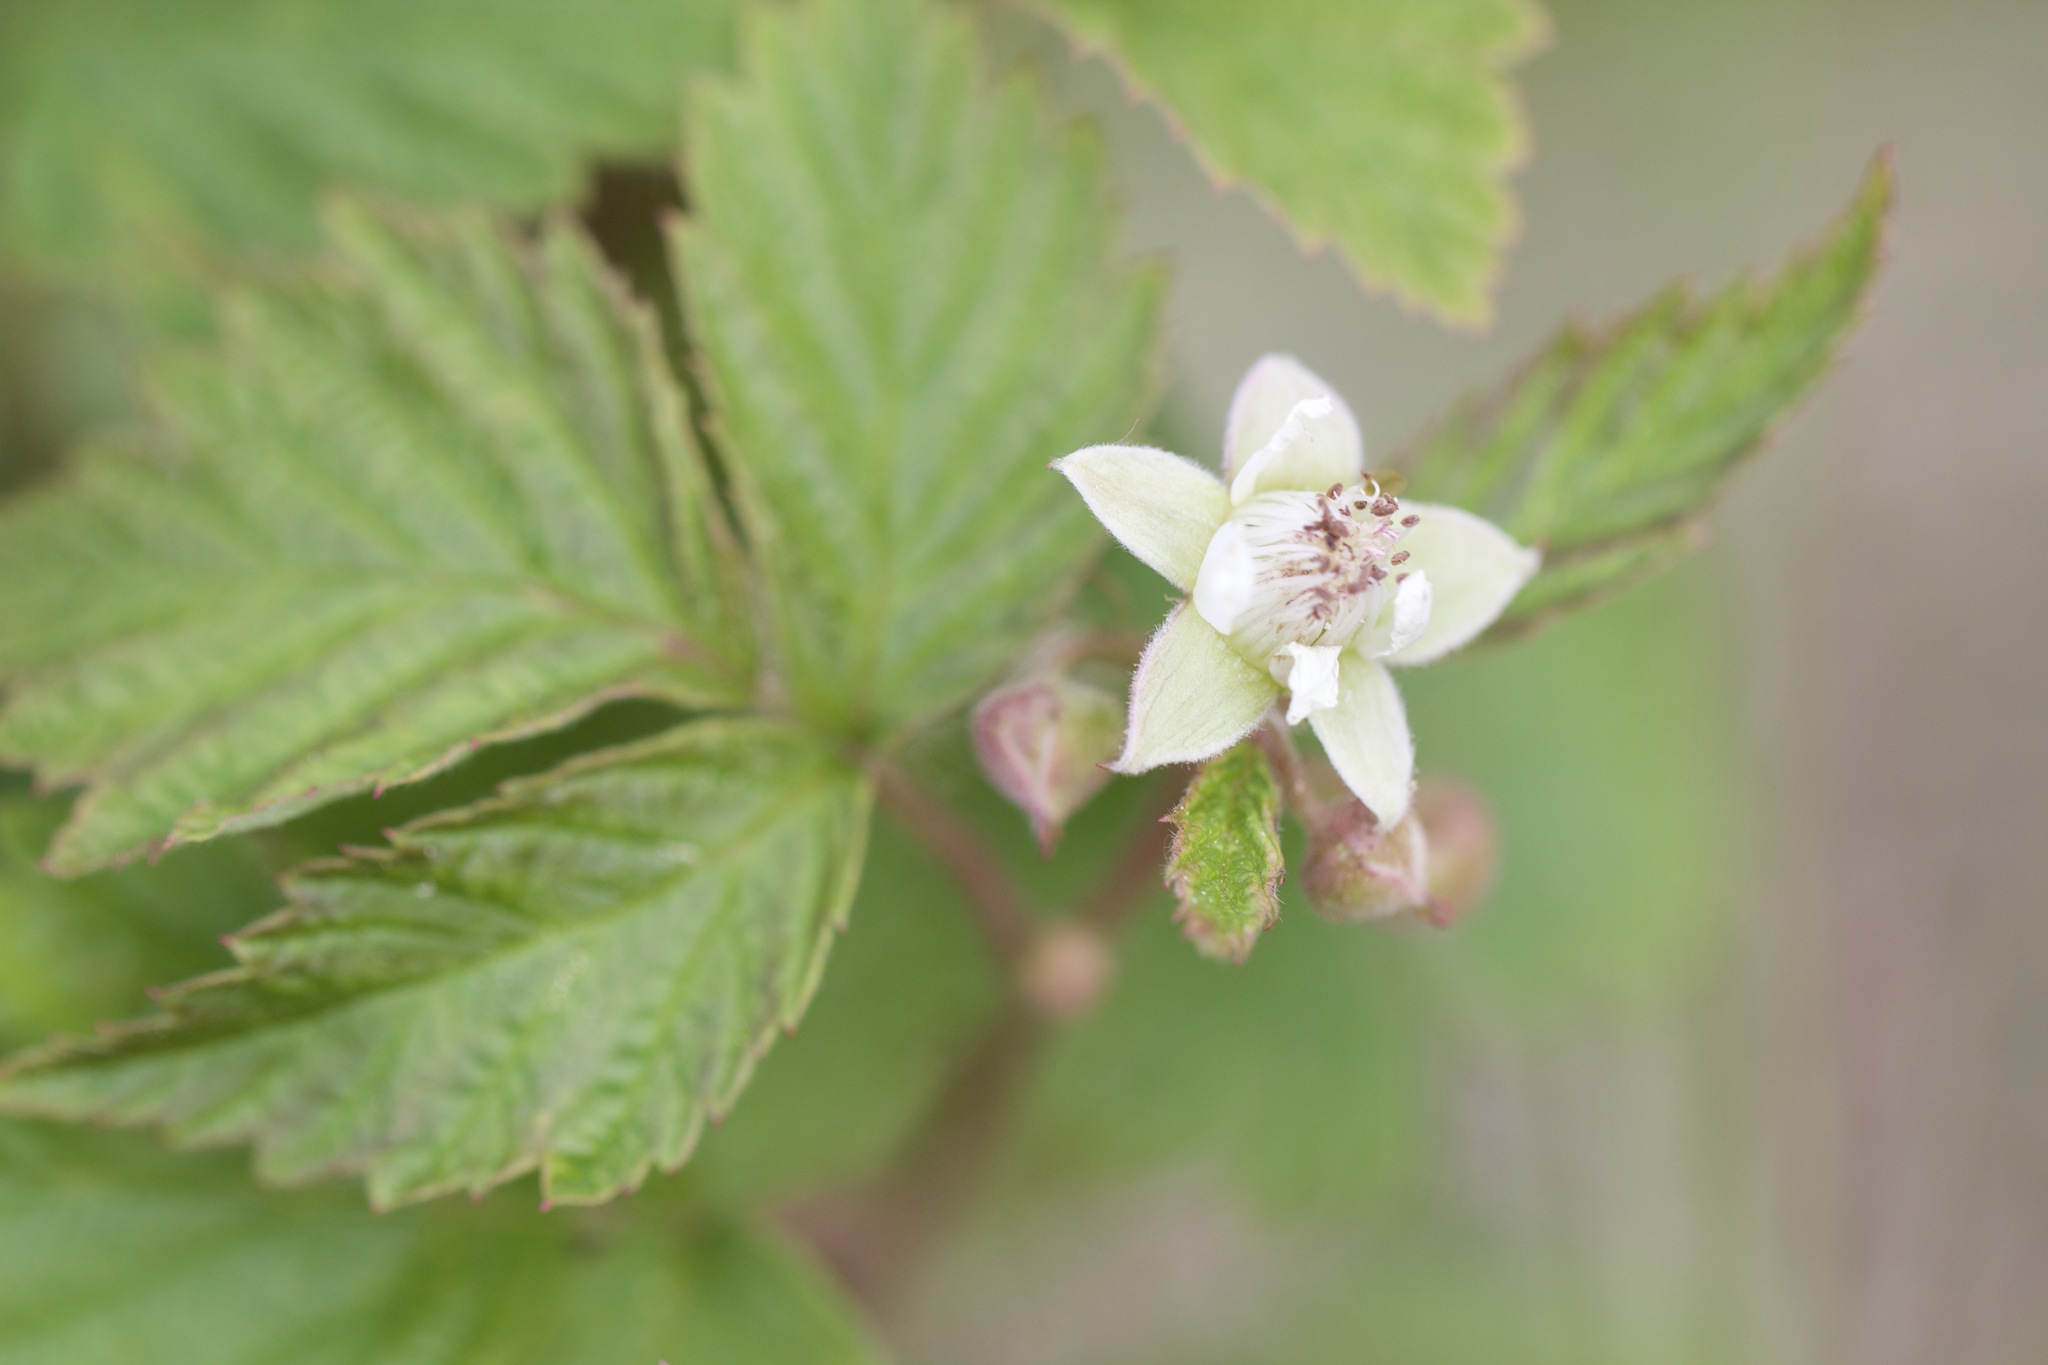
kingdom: Plantae
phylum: Tracheophyta
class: Magnoliopsida
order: Rosales
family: Rosaceae
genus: Rubus
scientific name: Rubus idaeus
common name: Raspberry
